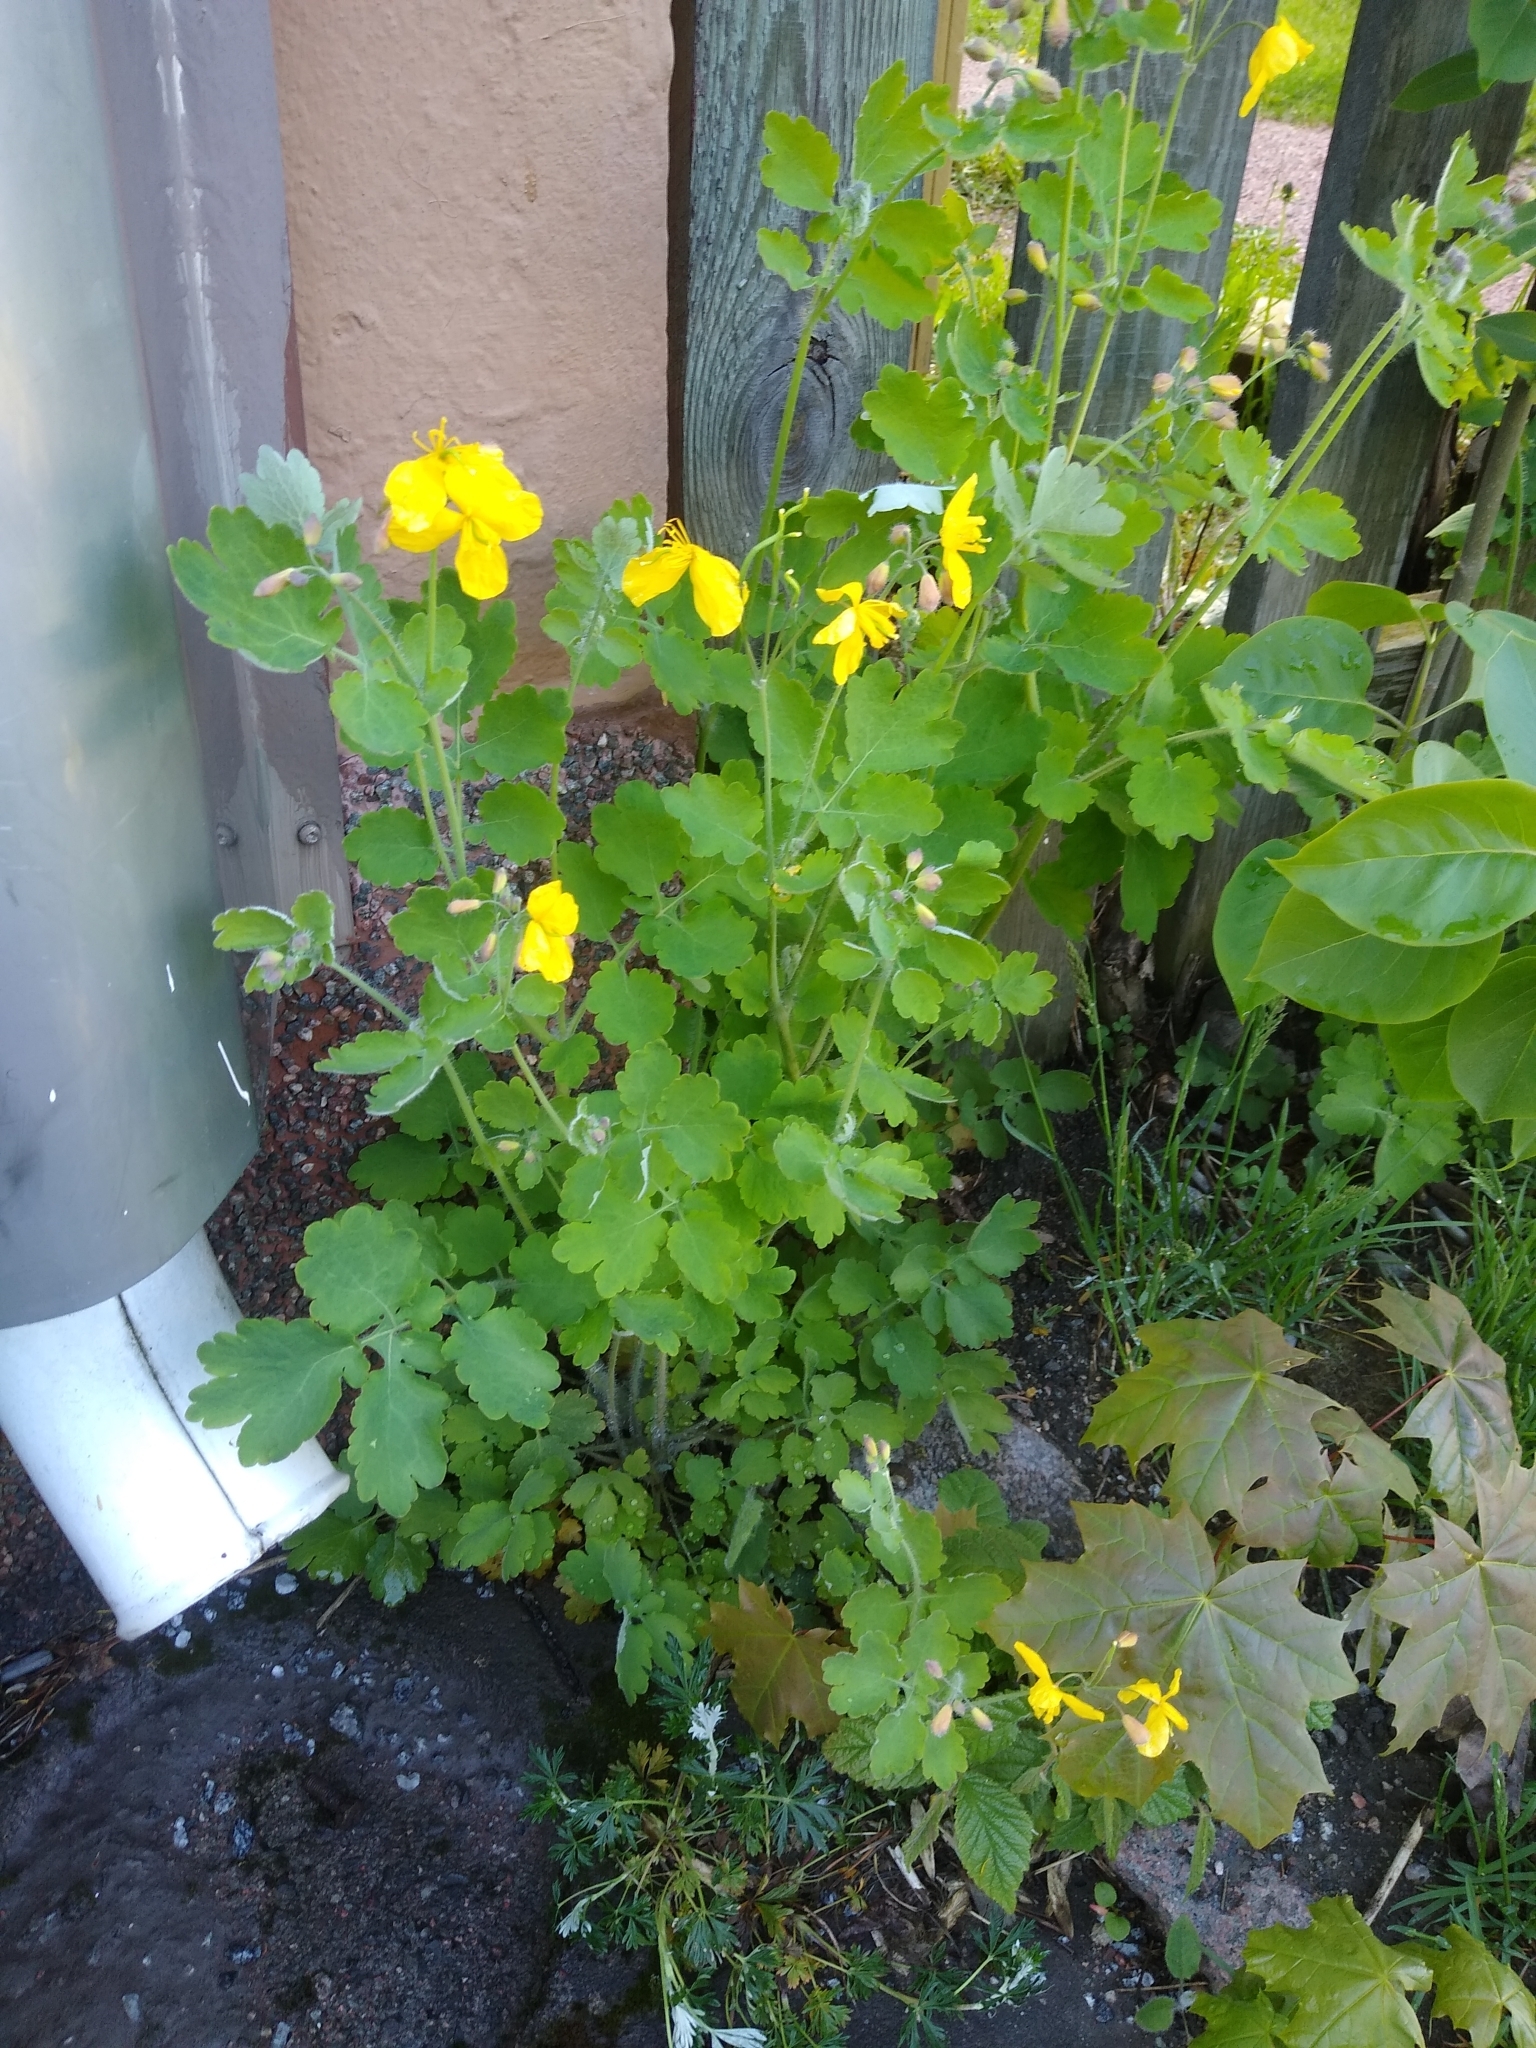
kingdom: Plantae
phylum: Tracheophyta
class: Magnoliopsida
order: Ranunculales
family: Papaveraceae
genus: Chelidonium
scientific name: Chelidonium majus
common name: Greater celandine
